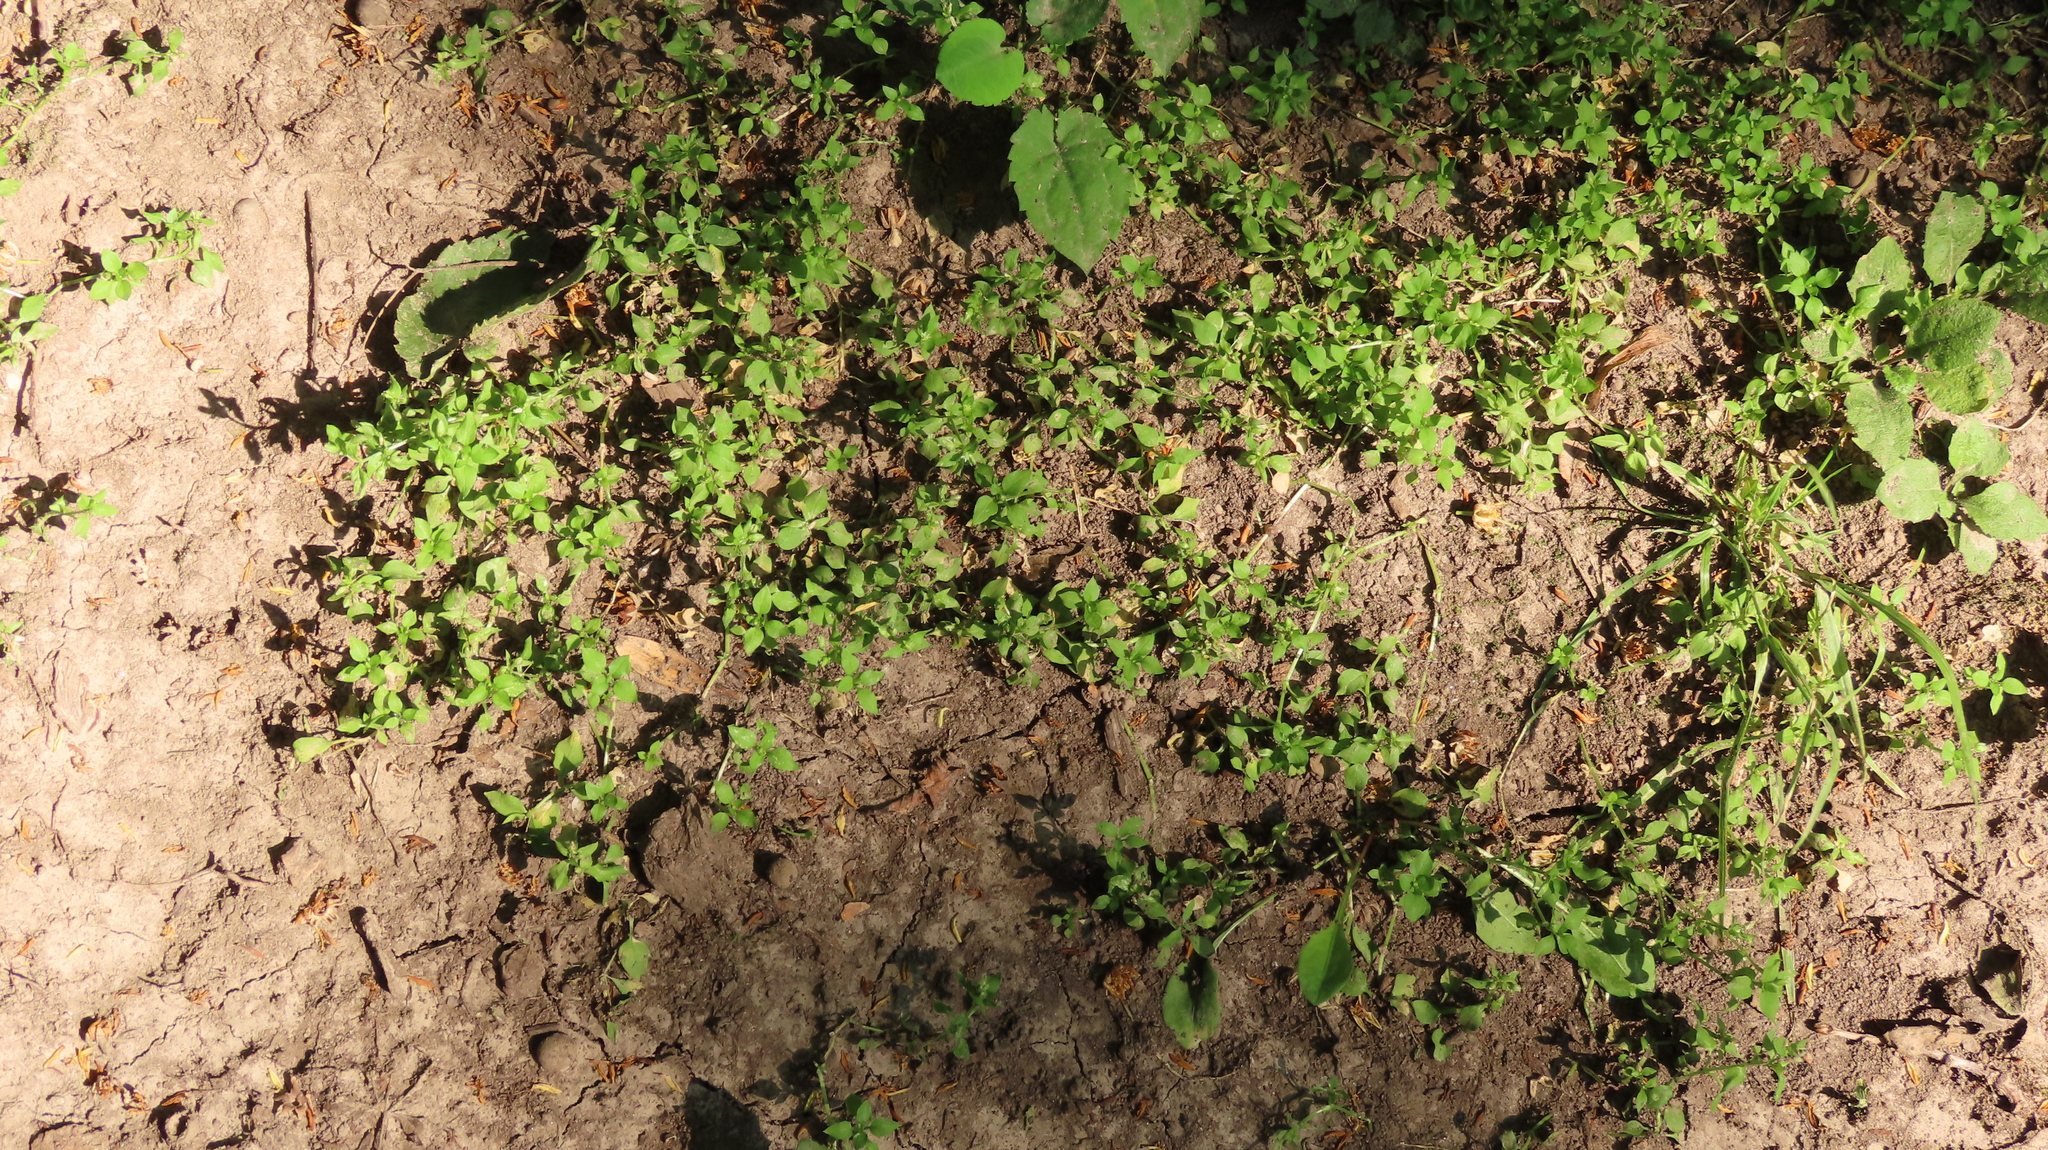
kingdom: Plantae
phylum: Tracheophyta
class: Magnoliopsida
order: Caryophyllales
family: Caryophyllaceae
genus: Stellaria
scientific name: Stellaria media
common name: Common chickweed
